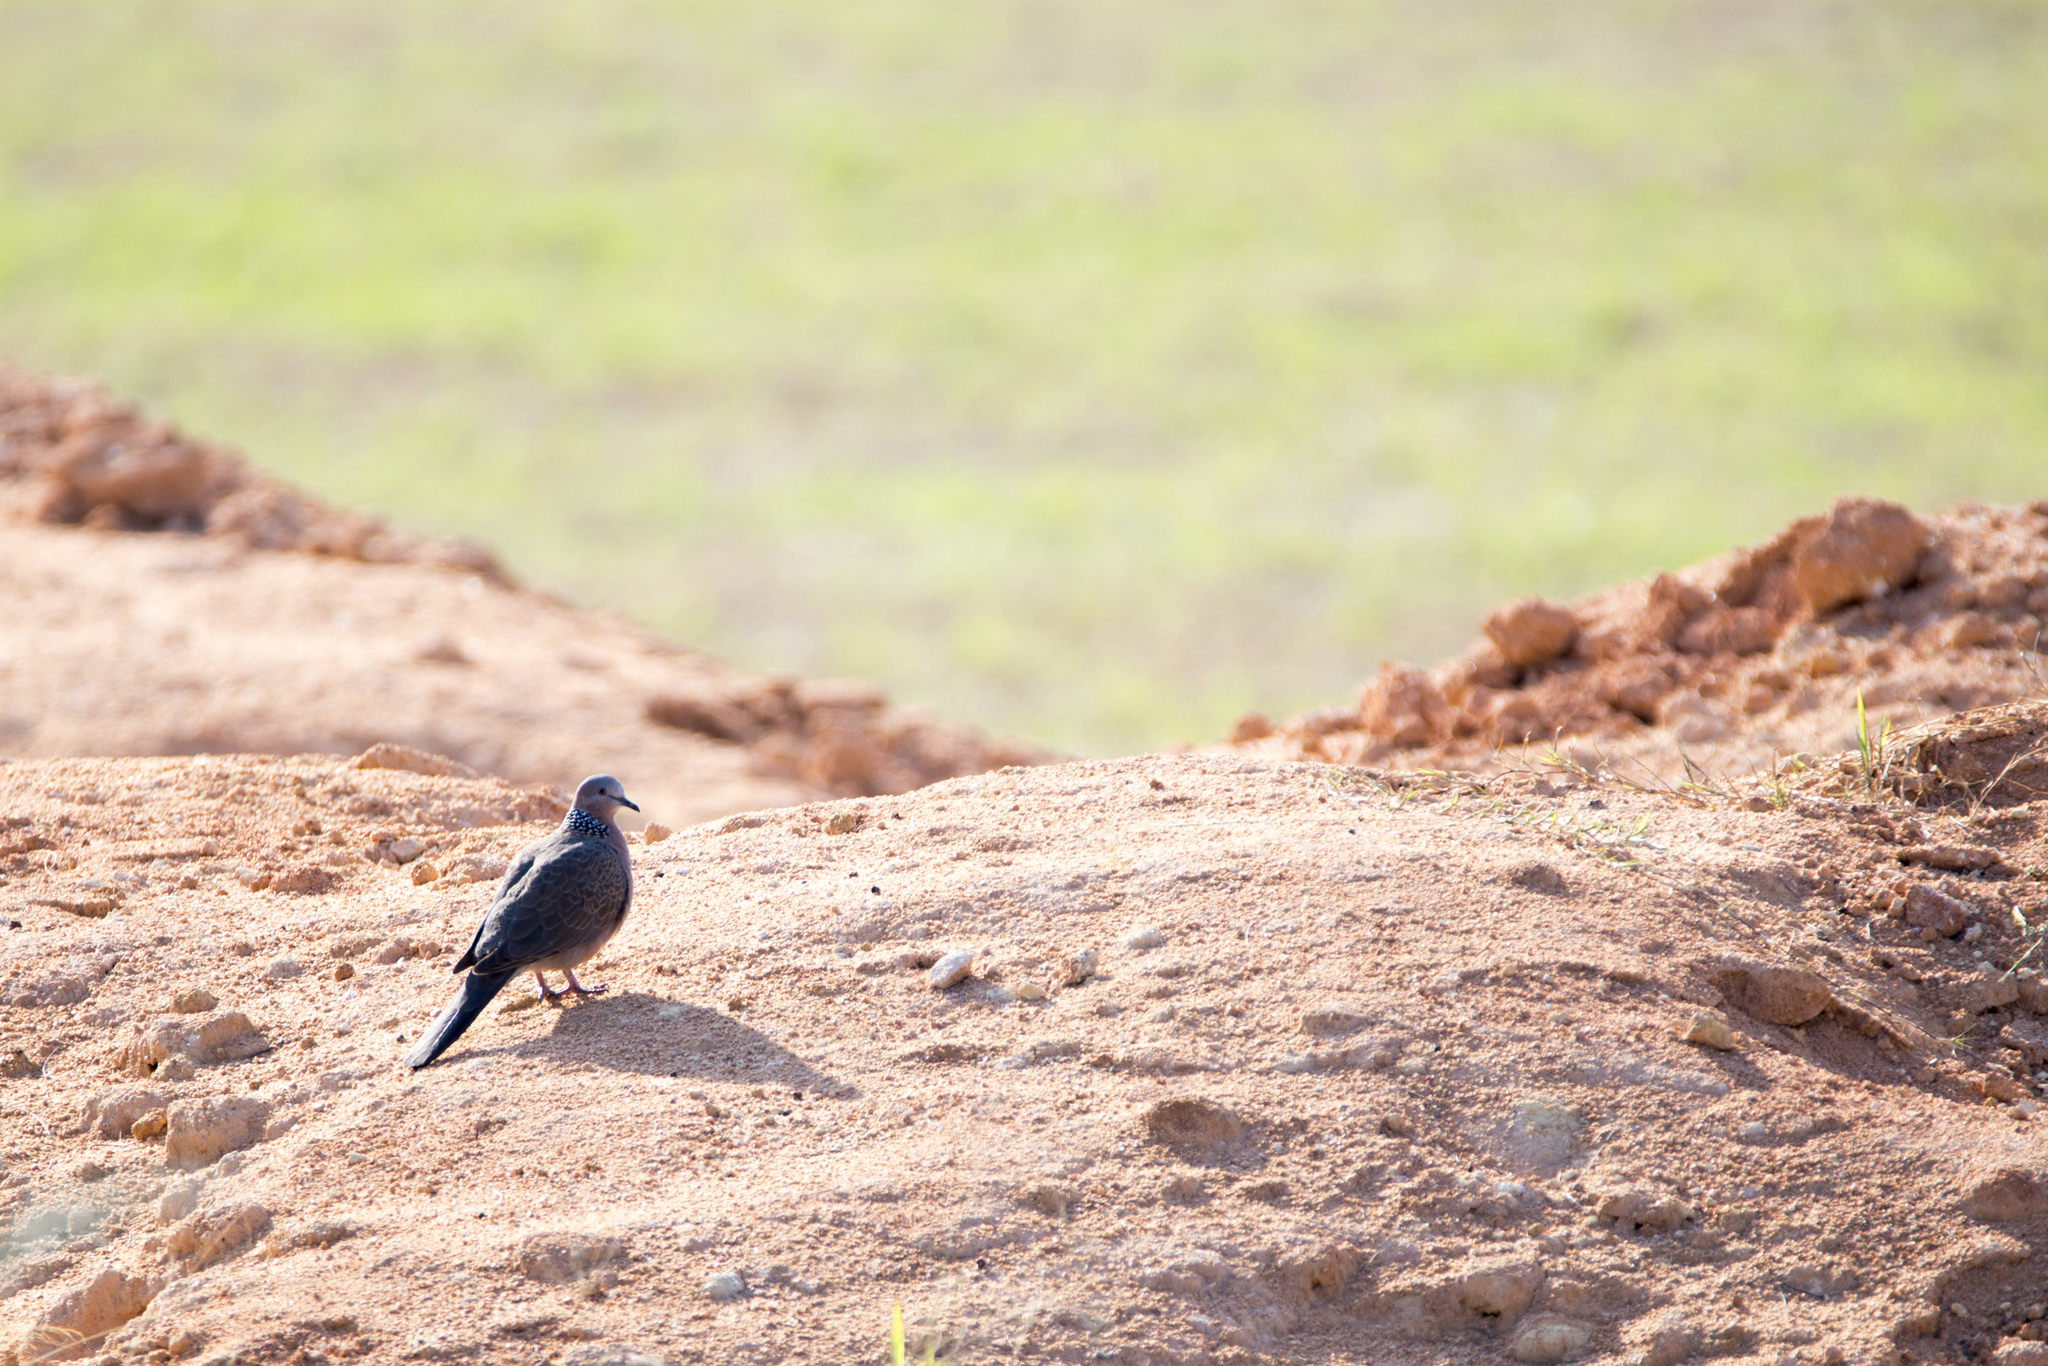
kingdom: Animalia
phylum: Chordata
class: Aves
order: Columbiformes
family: Columbidae
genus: Spilopelia
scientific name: Spilopelia chinensis
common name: Spotted dove
